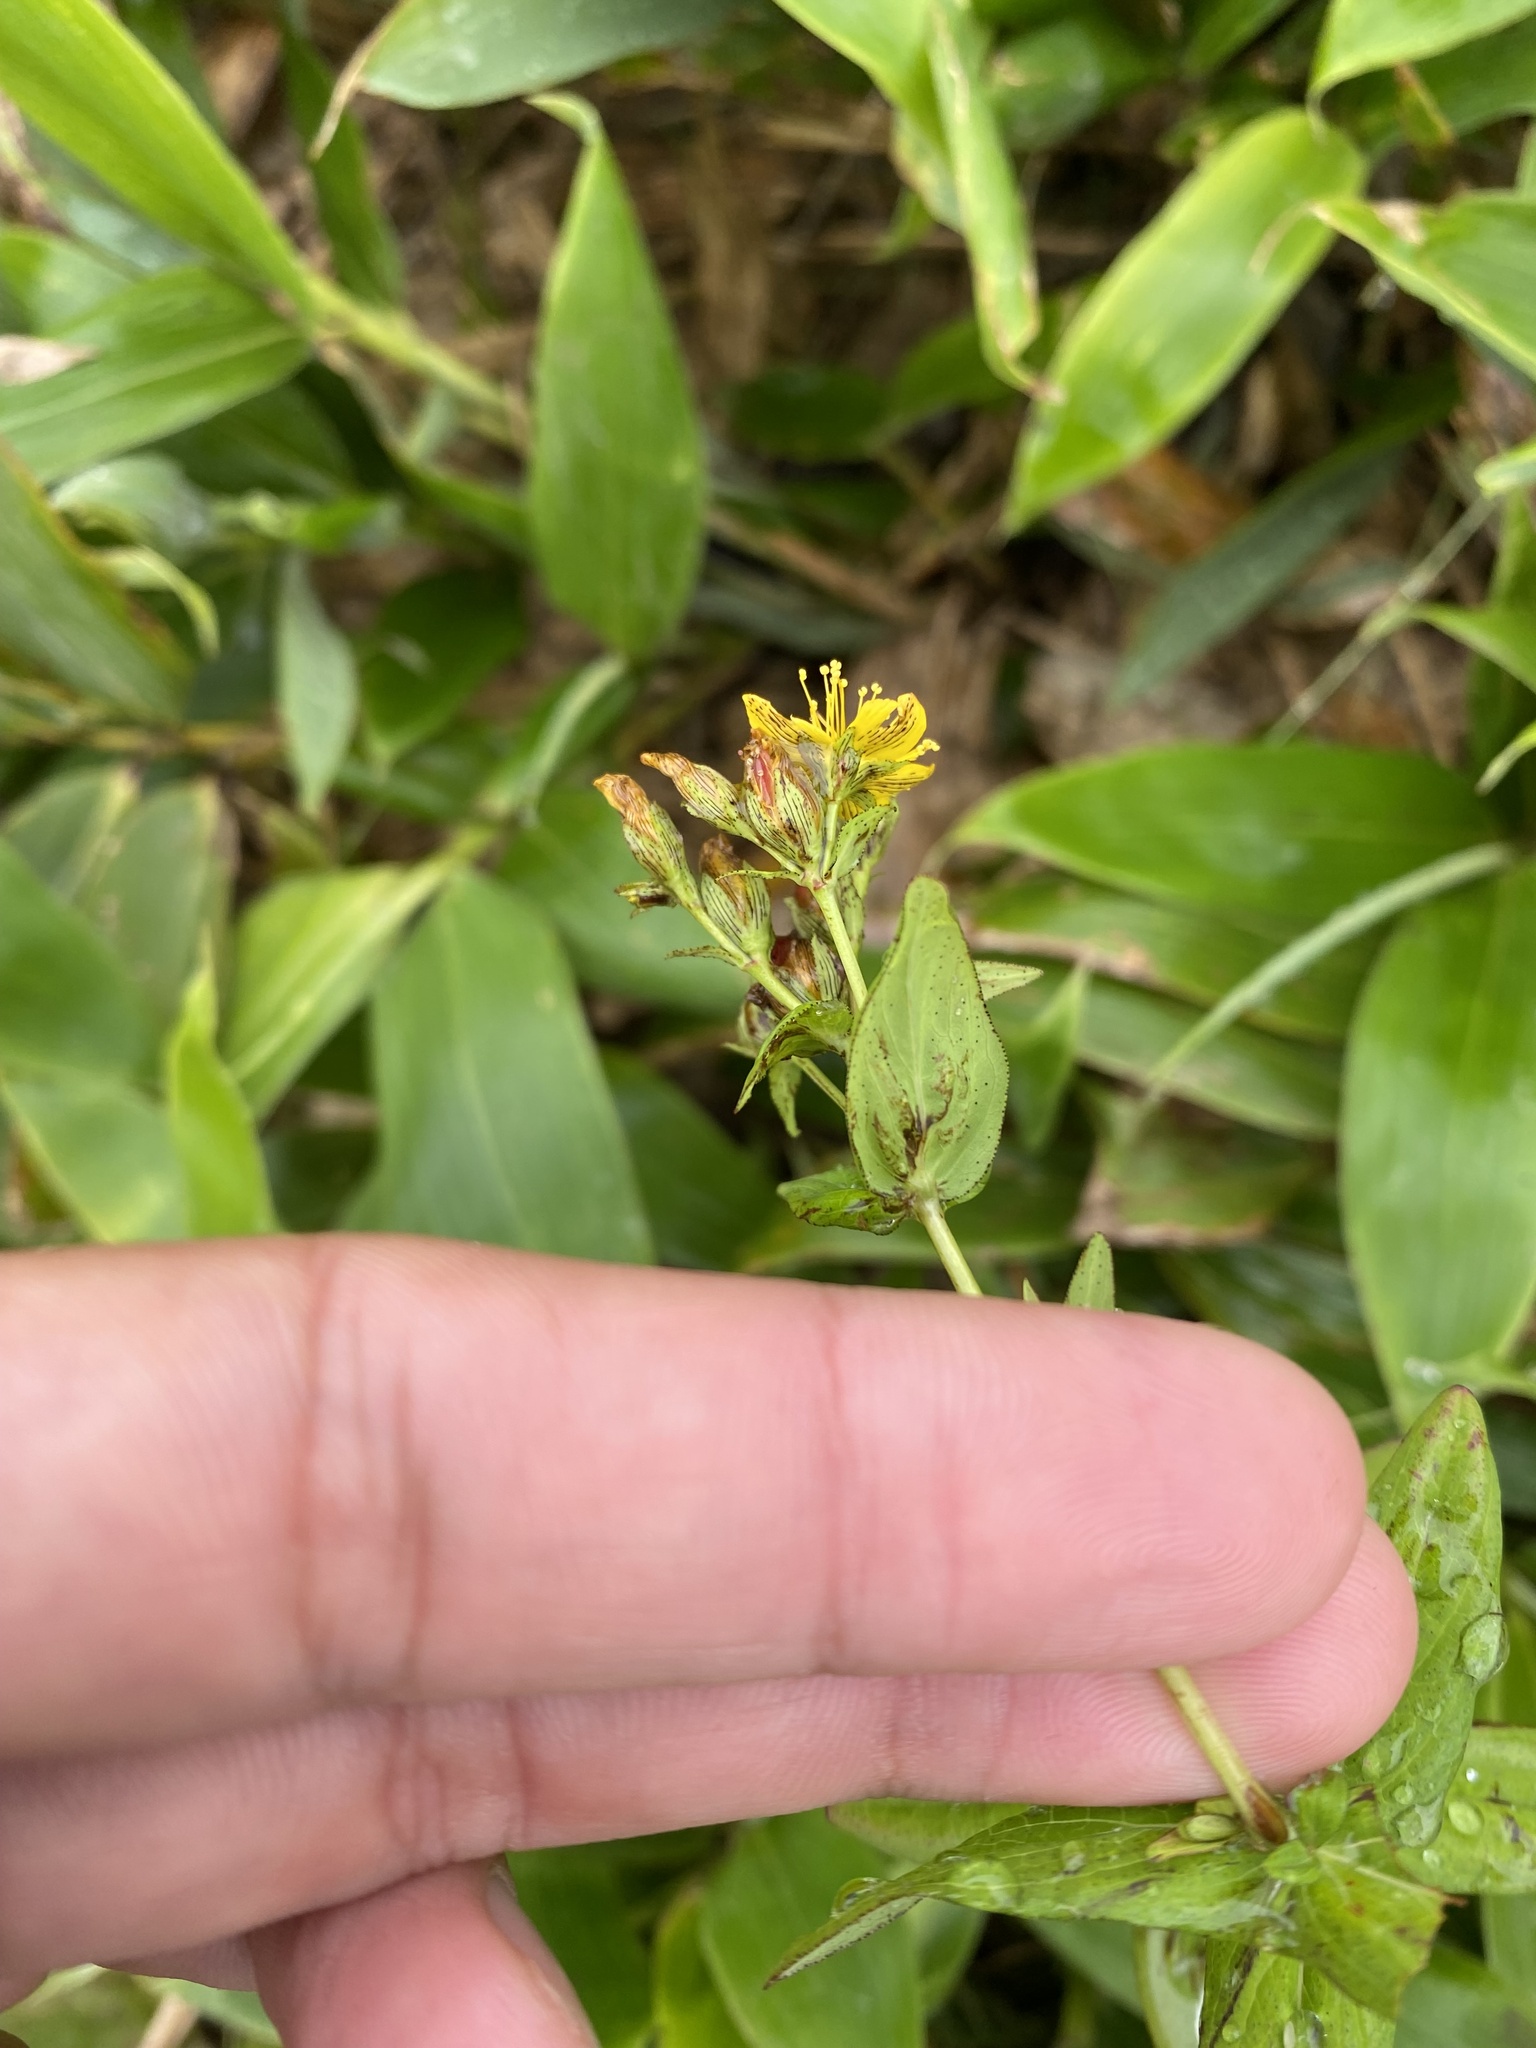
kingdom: Plantae
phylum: Tracheophyta
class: Magnoliopsida
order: Malpighiales
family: Hypericaceae
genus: Hypericum
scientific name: Hypericum kamtschaticum
